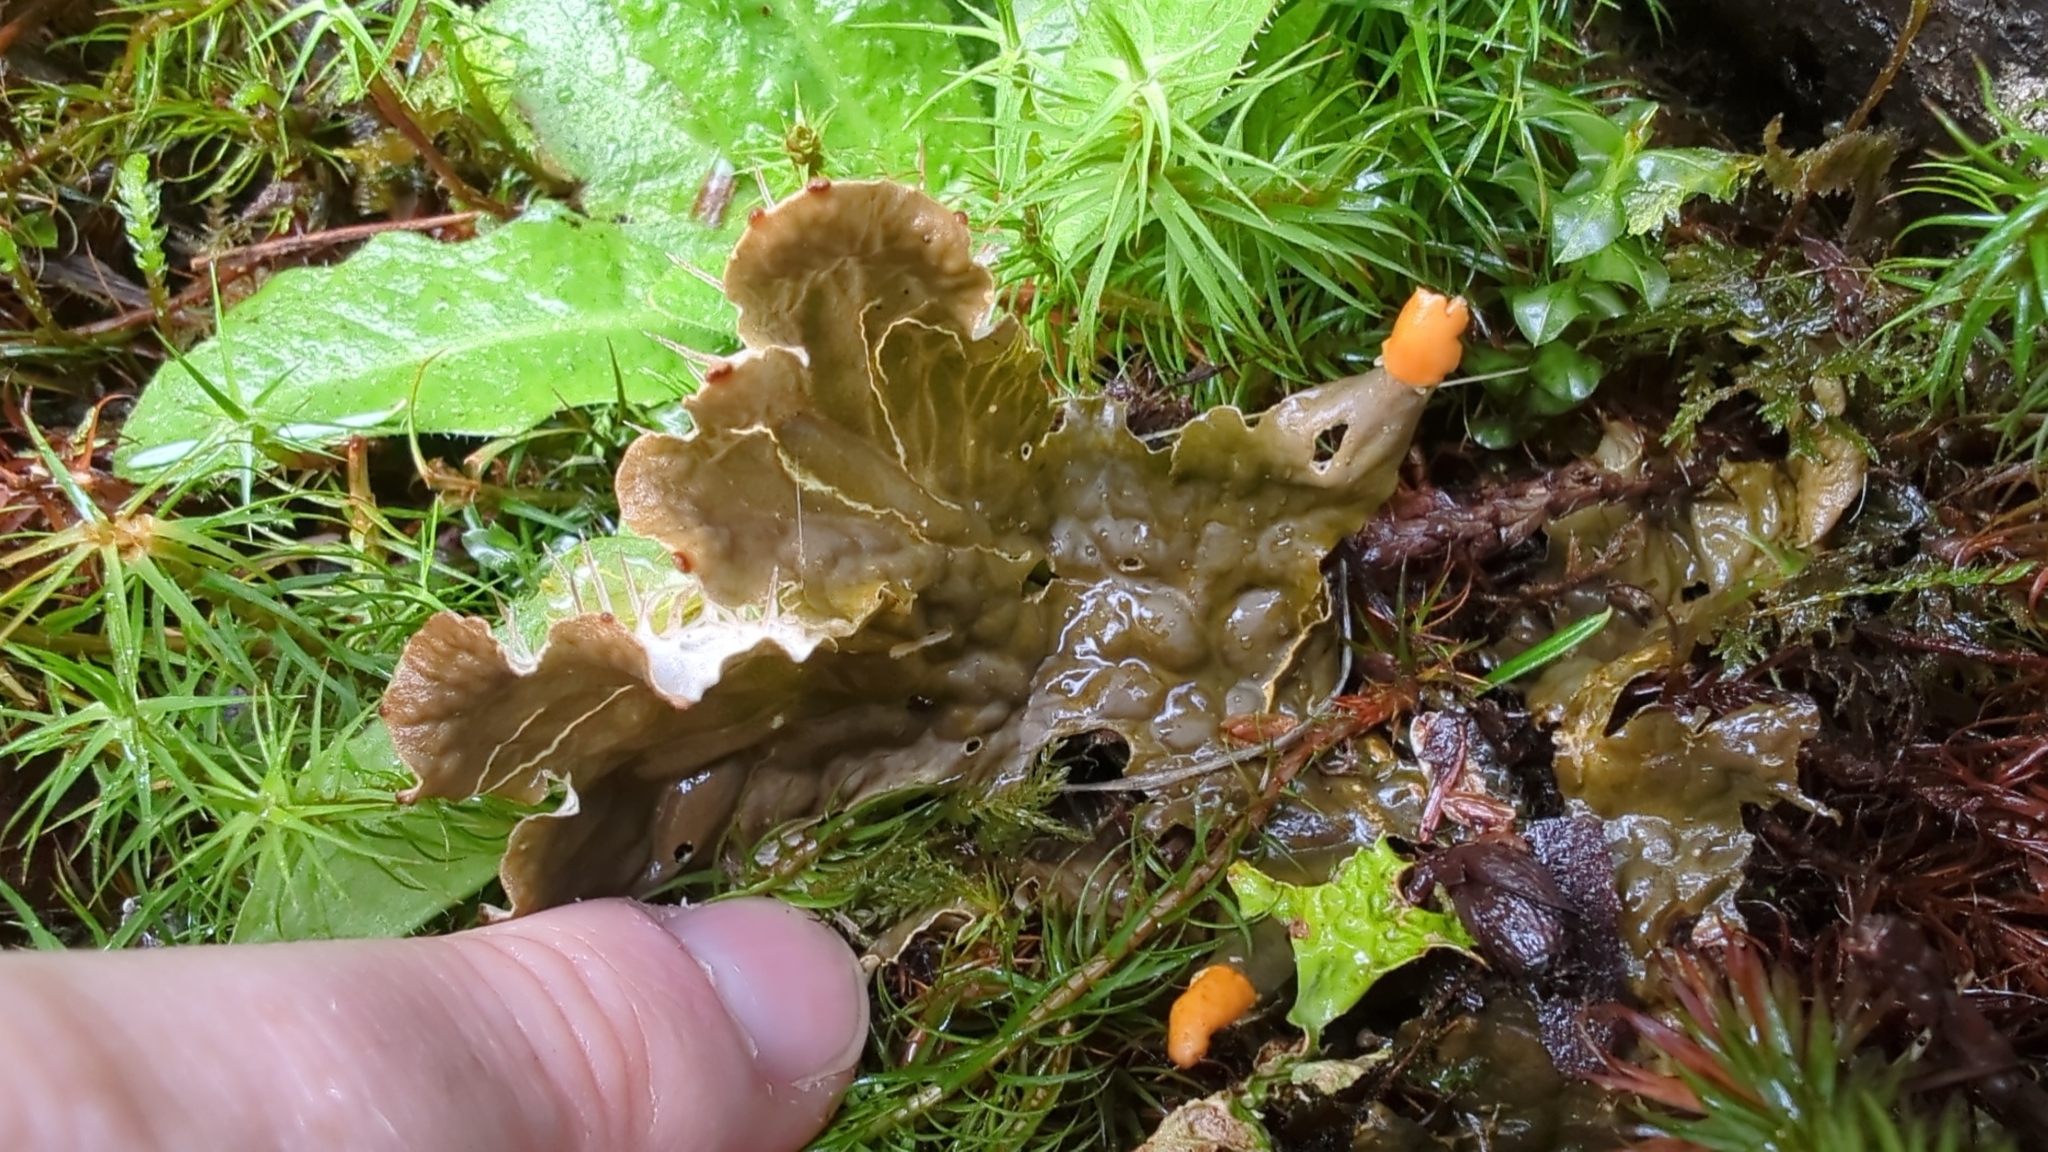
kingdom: Fungi
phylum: Ascomycota
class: Lecanoromycetes
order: Peltigerales
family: Peltigeraceae
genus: Peltigera
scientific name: Peltigera membranacea
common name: Membranous pelt lichen
